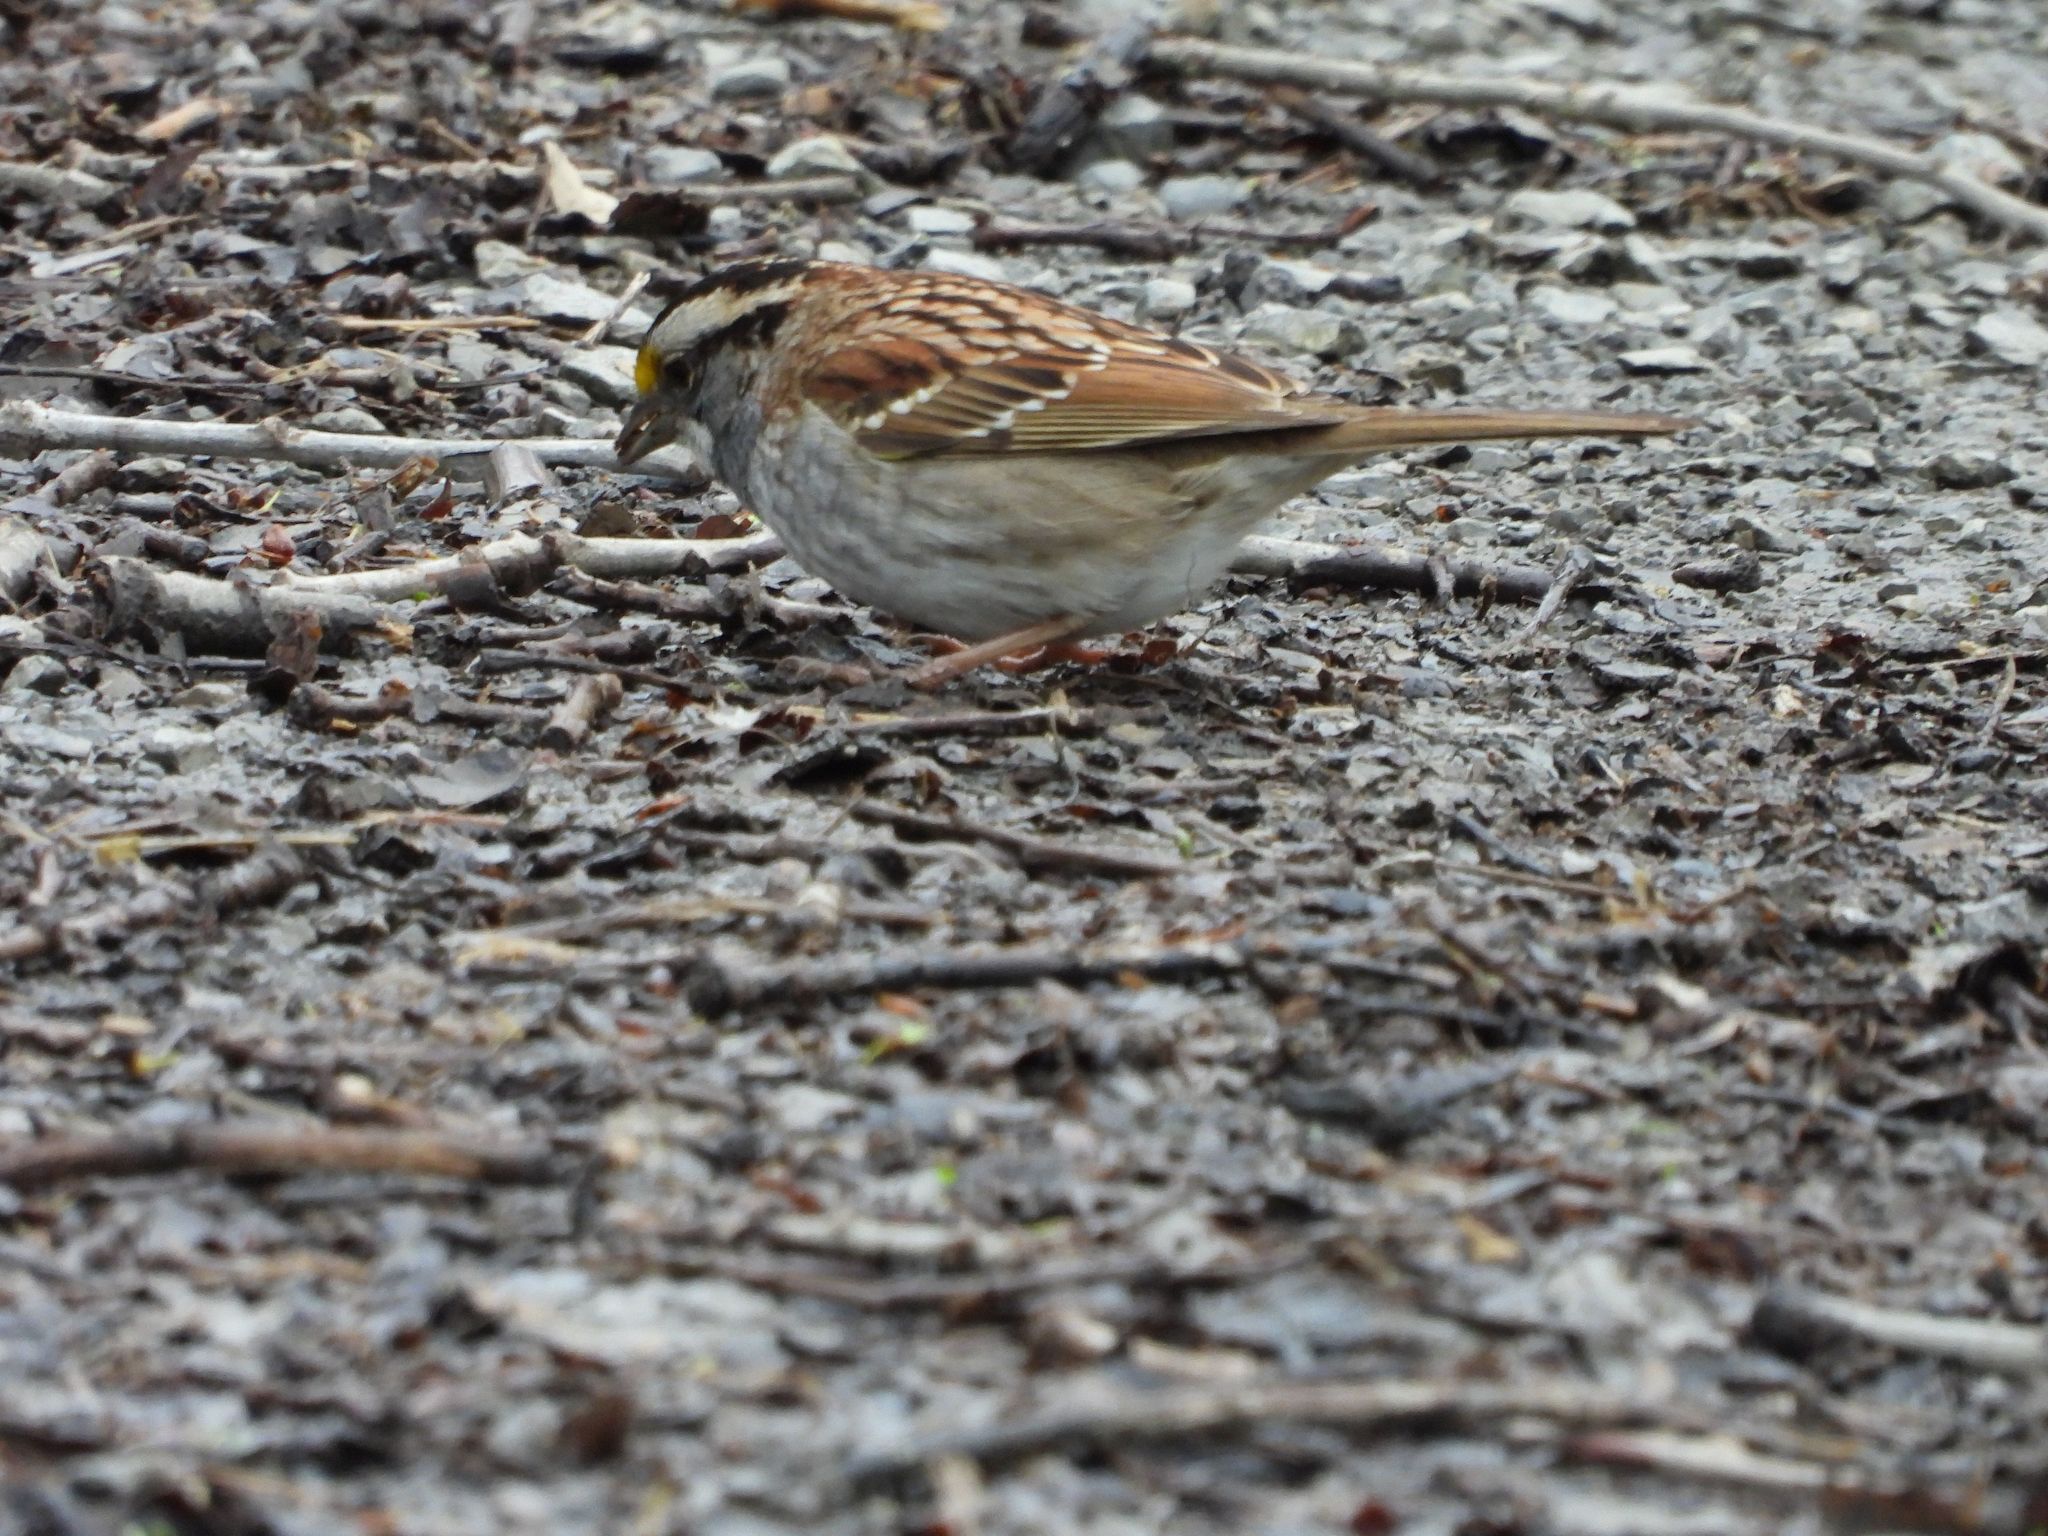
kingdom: Animalia
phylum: Chordata
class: Aves
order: Passeriformes
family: Passerellidae
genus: Zonotrichia
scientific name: Zonotrichia albicollis
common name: White-throated sparrow
